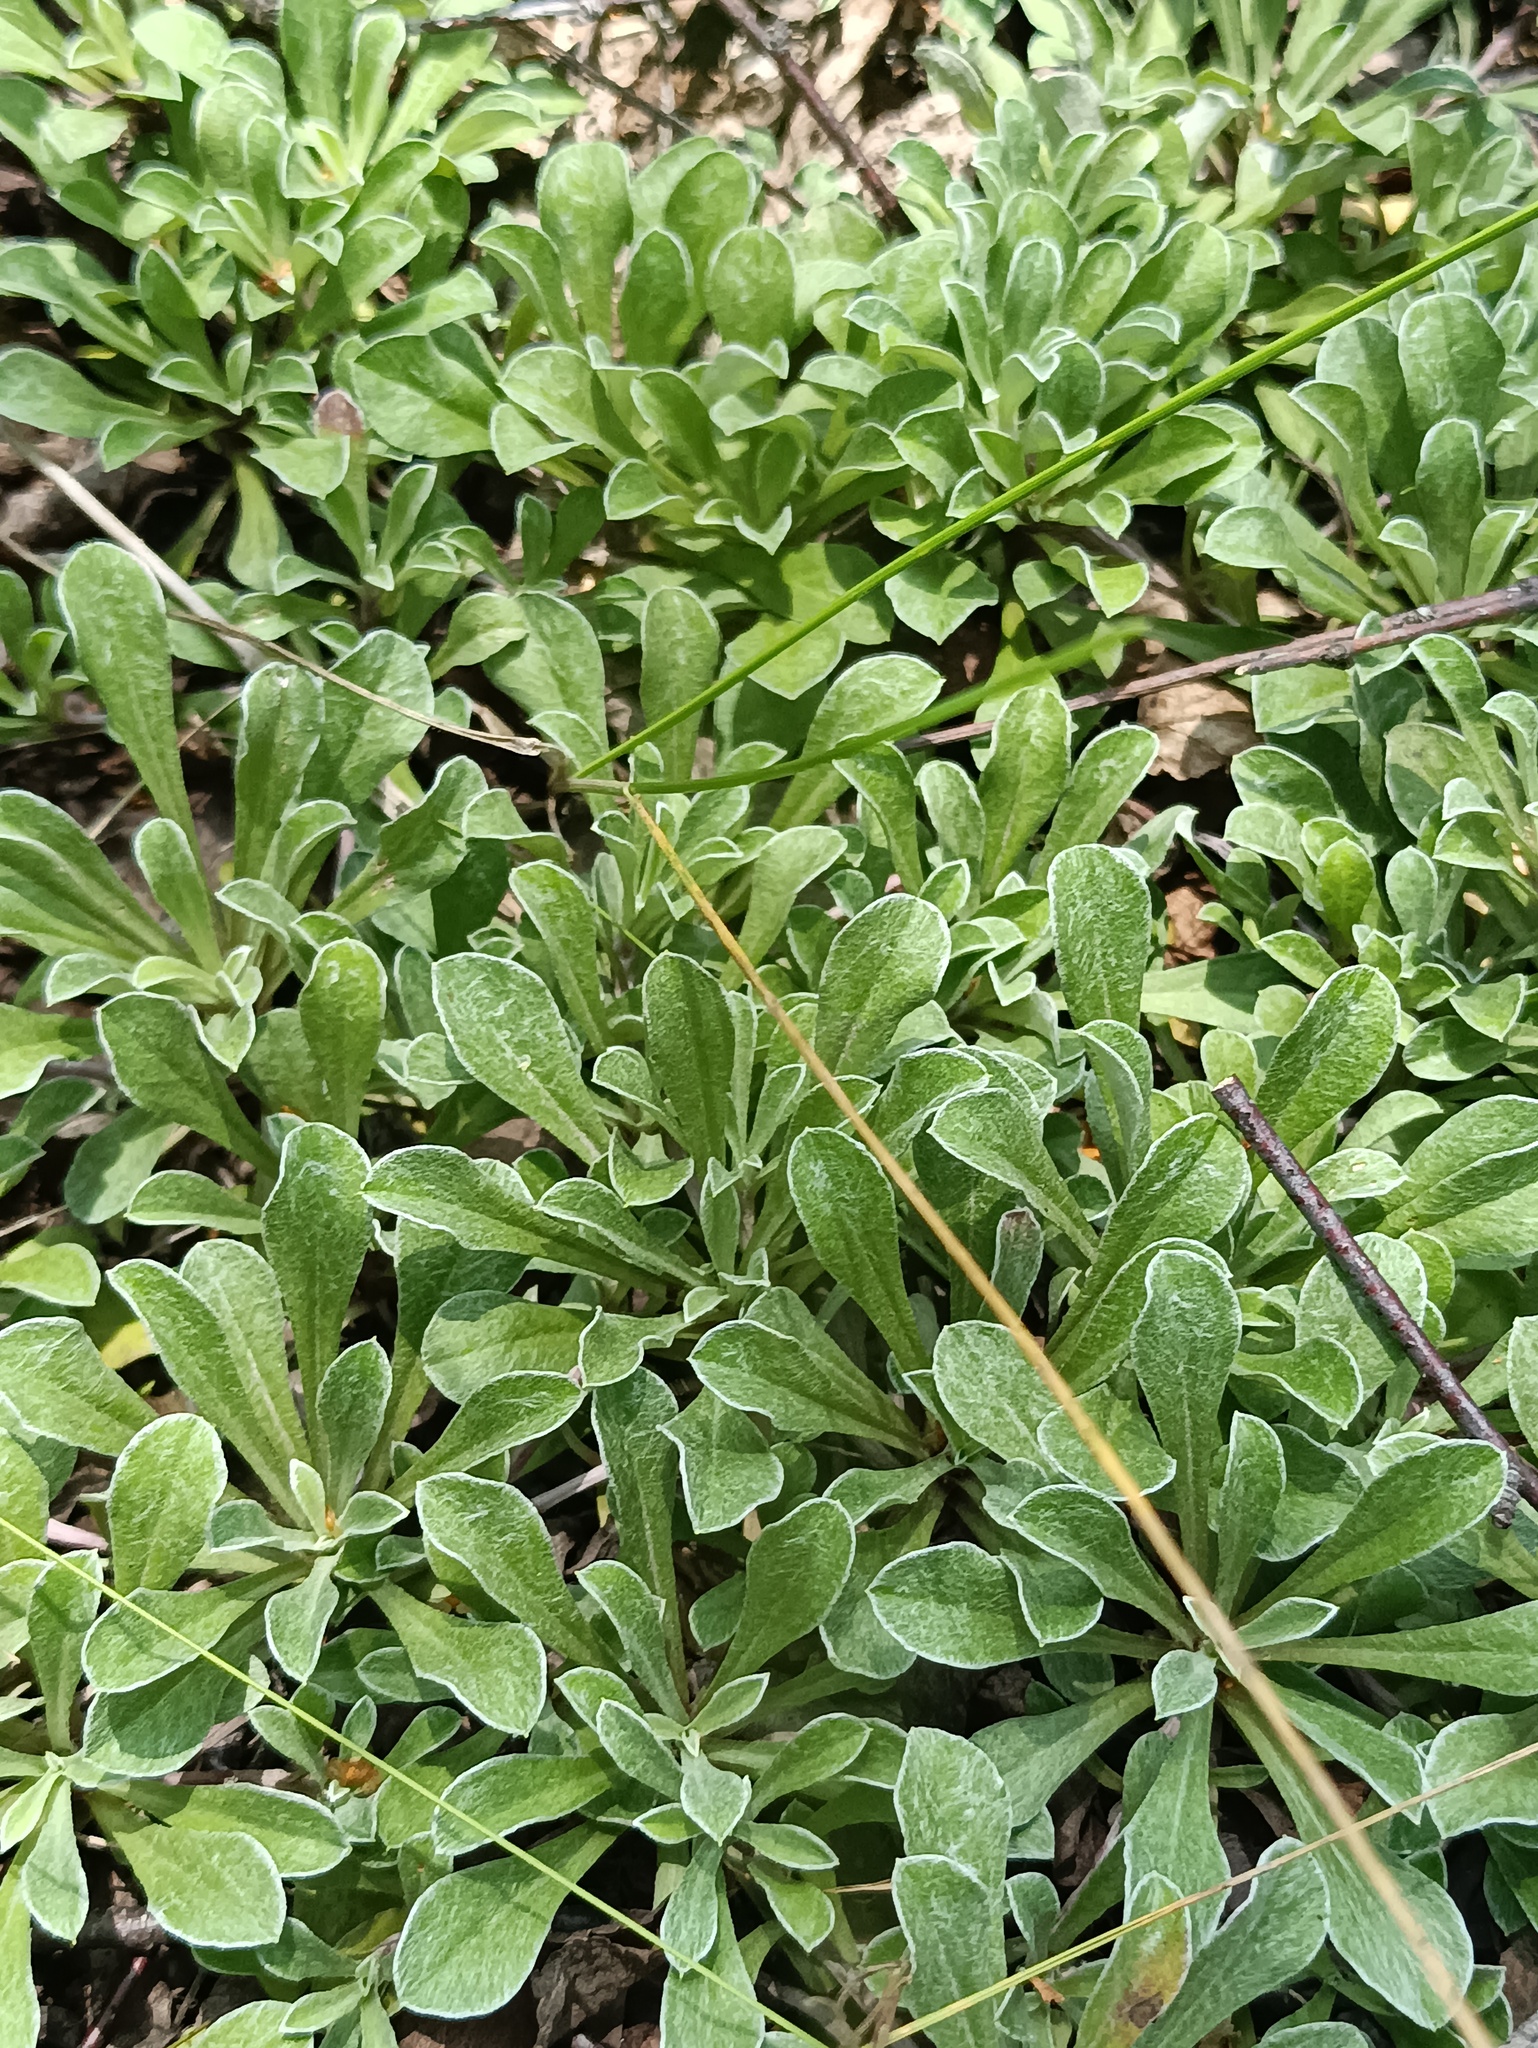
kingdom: Plantae
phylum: Tracheophyta
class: Magnoliopsida
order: Asterales
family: Asteraceae
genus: Antennaria
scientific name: Antennaria dioica
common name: Mountain everlasting
